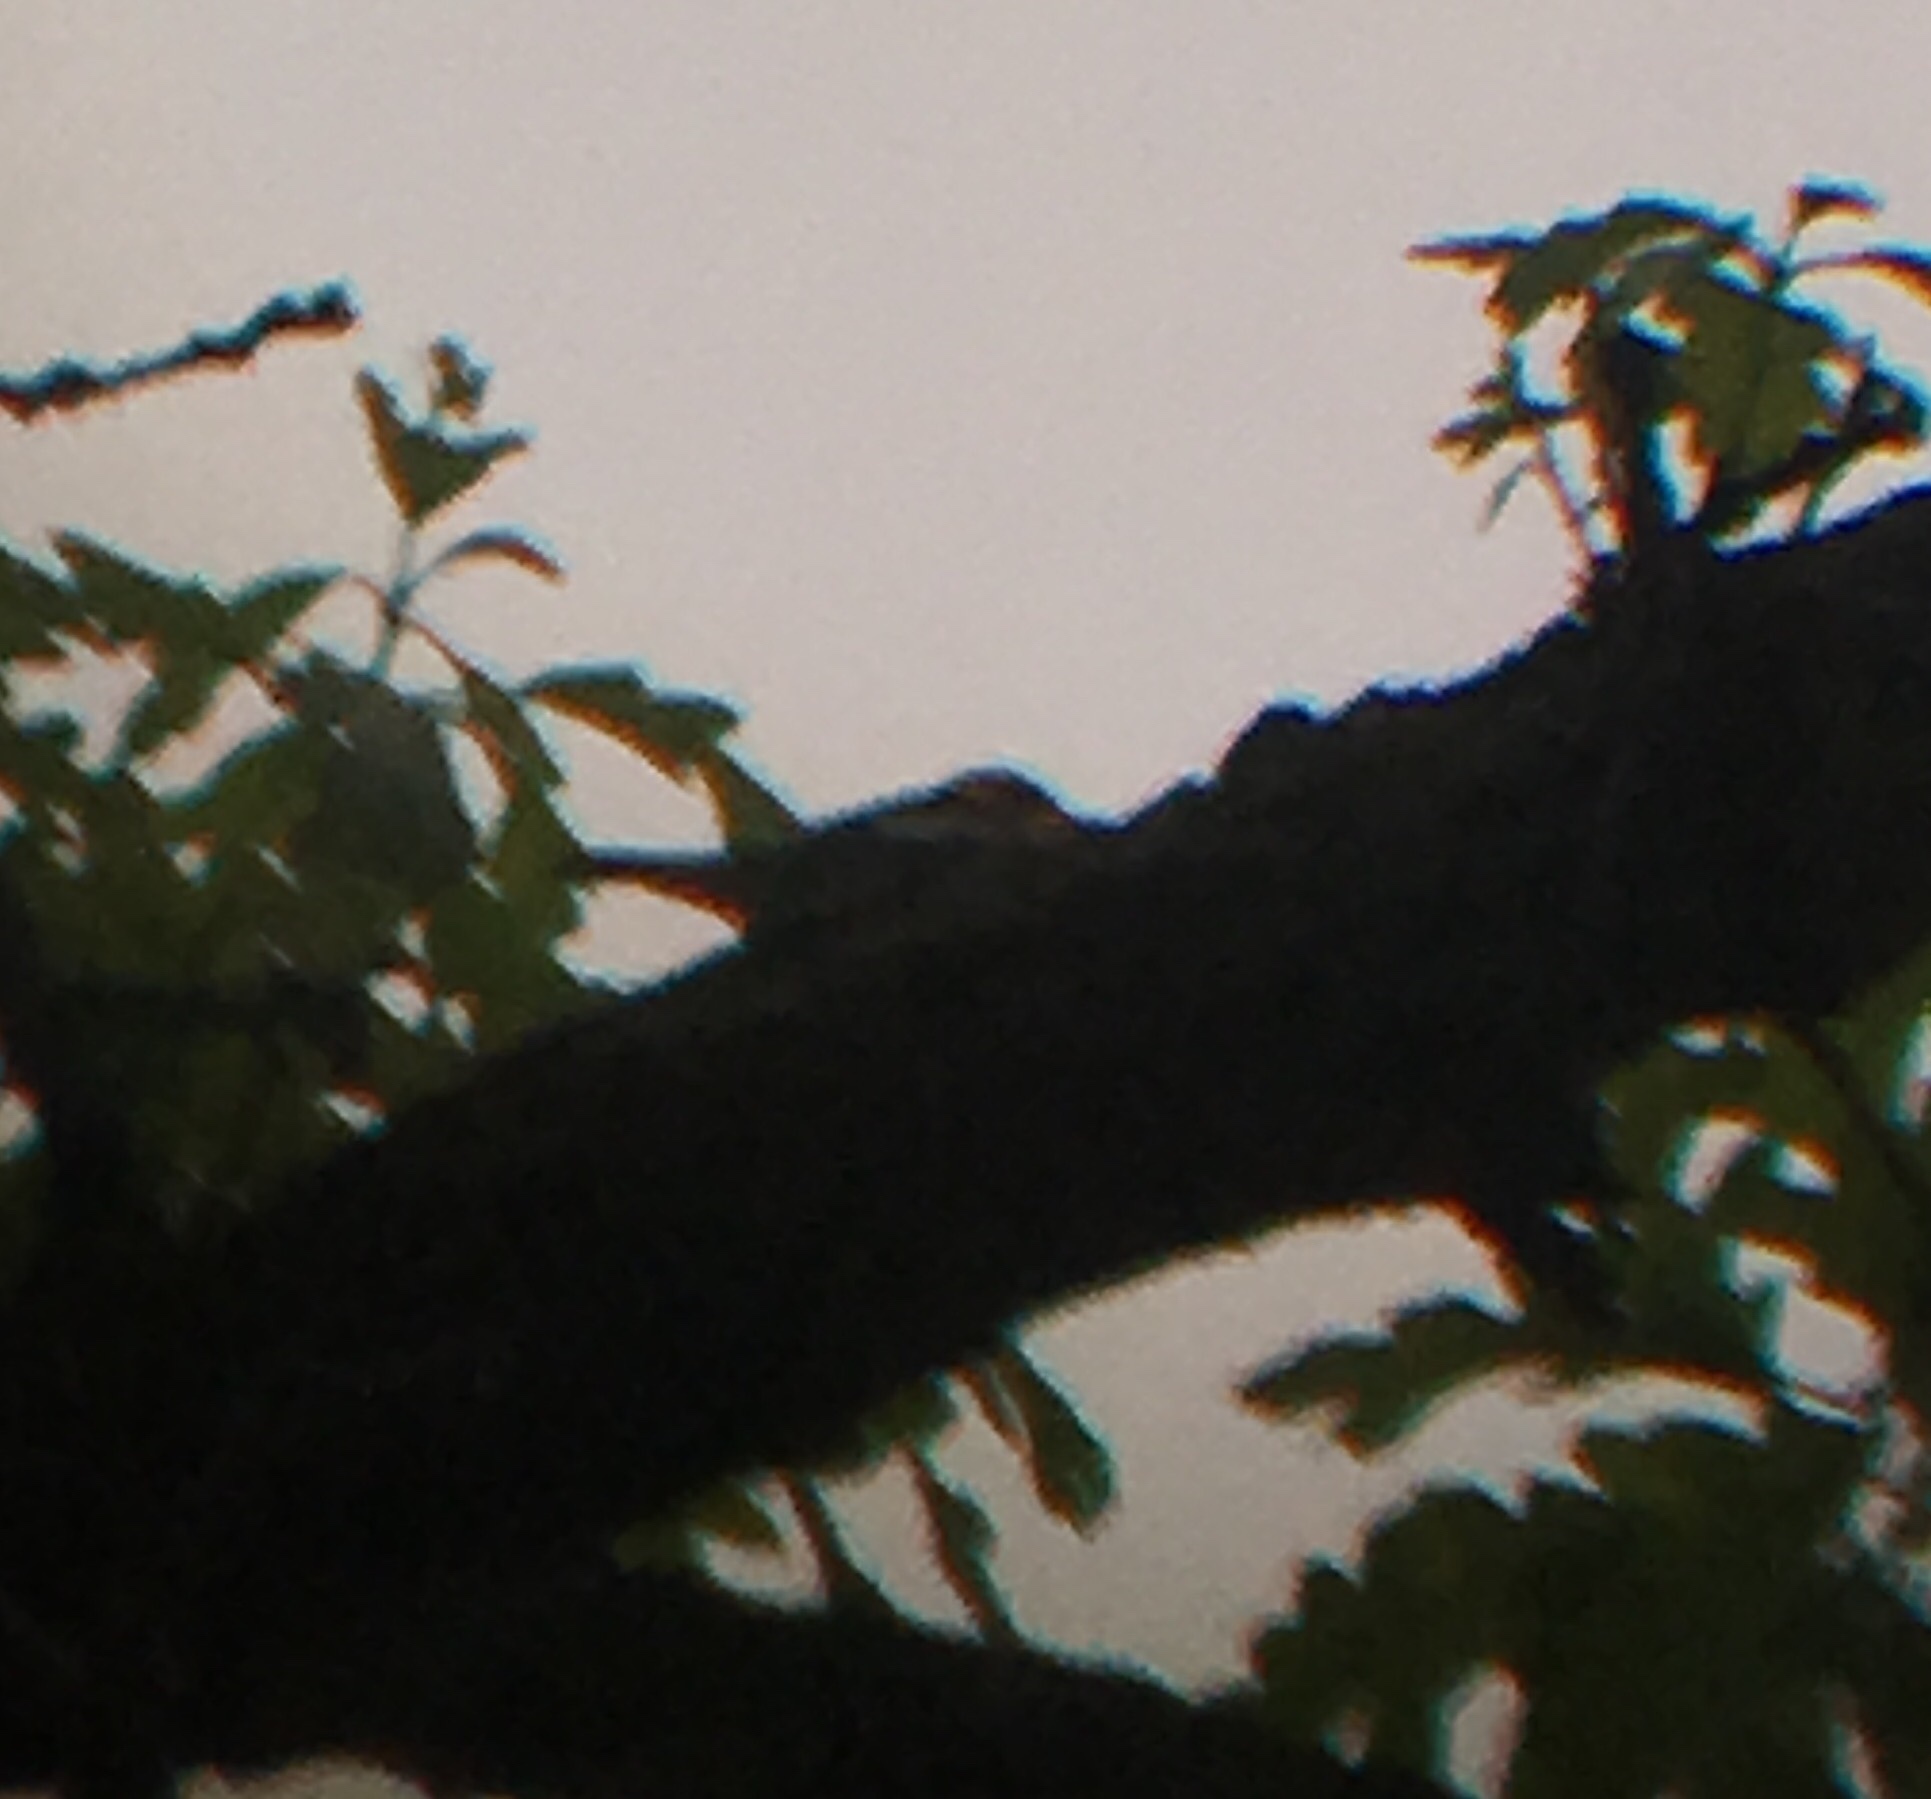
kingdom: Animalia
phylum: Chordata
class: Aves
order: Passeriformes
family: Parulidae
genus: Setophaga
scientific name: Setophaga fusca
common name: Blackburnian warbler
